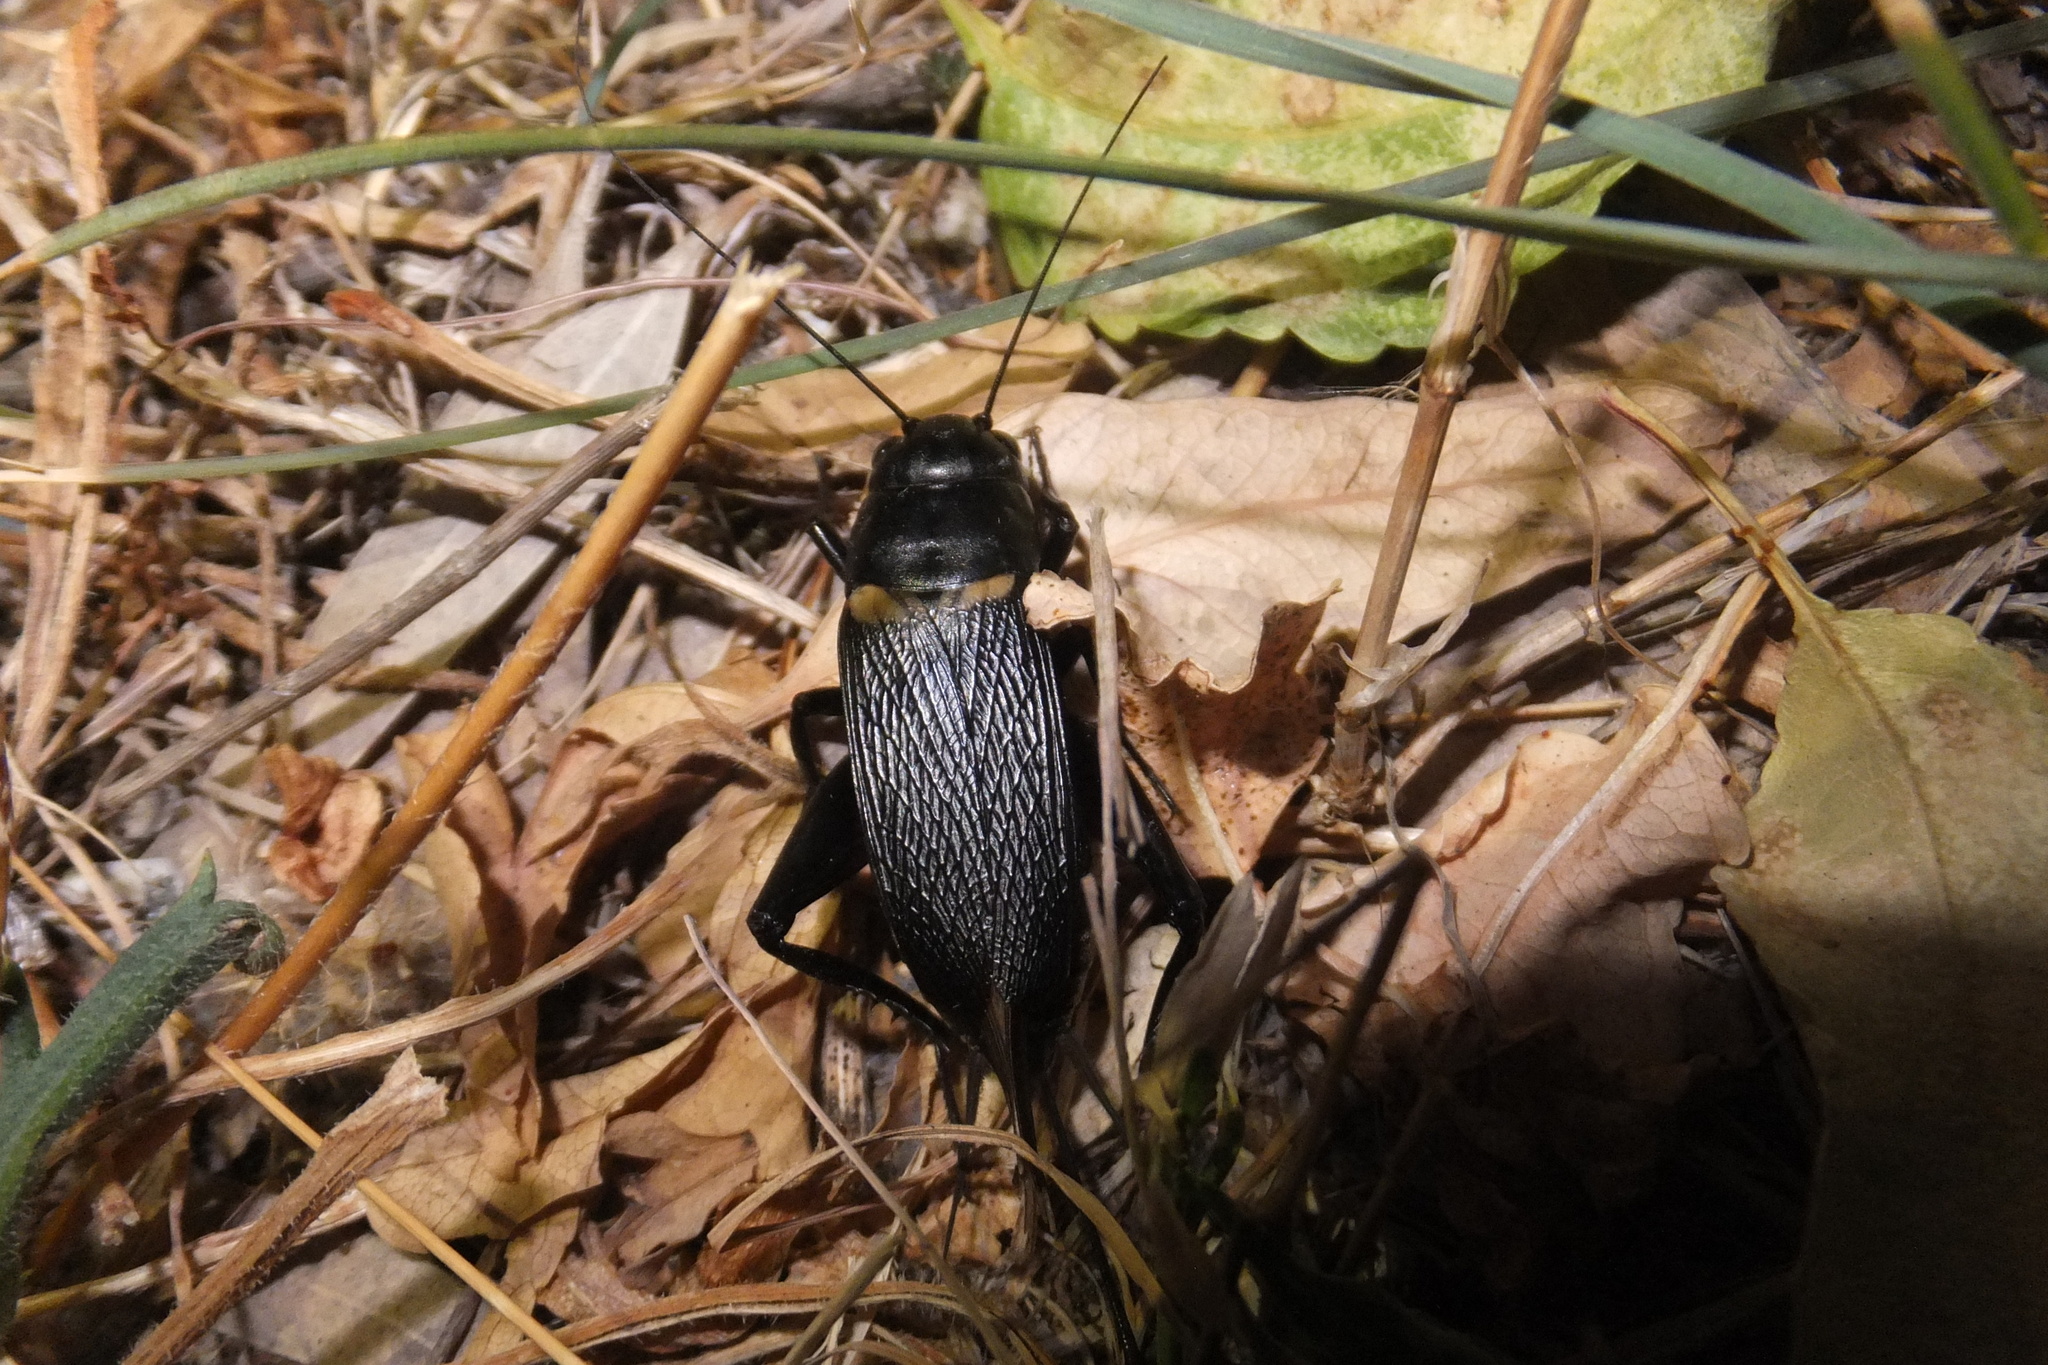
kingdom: Animalia
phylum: Arthropoda
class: Insecta
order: Orthoptera
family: Gryllidae
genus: Gryllus
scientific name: Gryllus bimaculatus
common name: Two-spotted cricket
